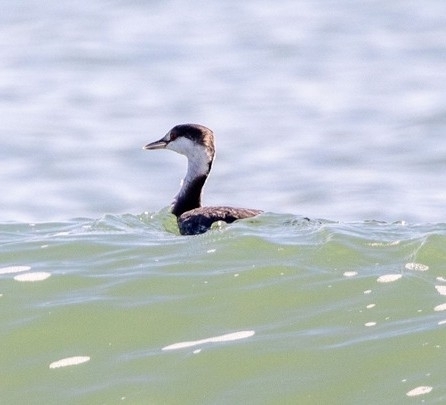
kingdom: Animalia
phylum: Chordata
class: Aves
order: Podicipediformes
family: Podicipedidae
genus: Podiceps
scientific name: Podiceps auritus
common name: Horned grebe
